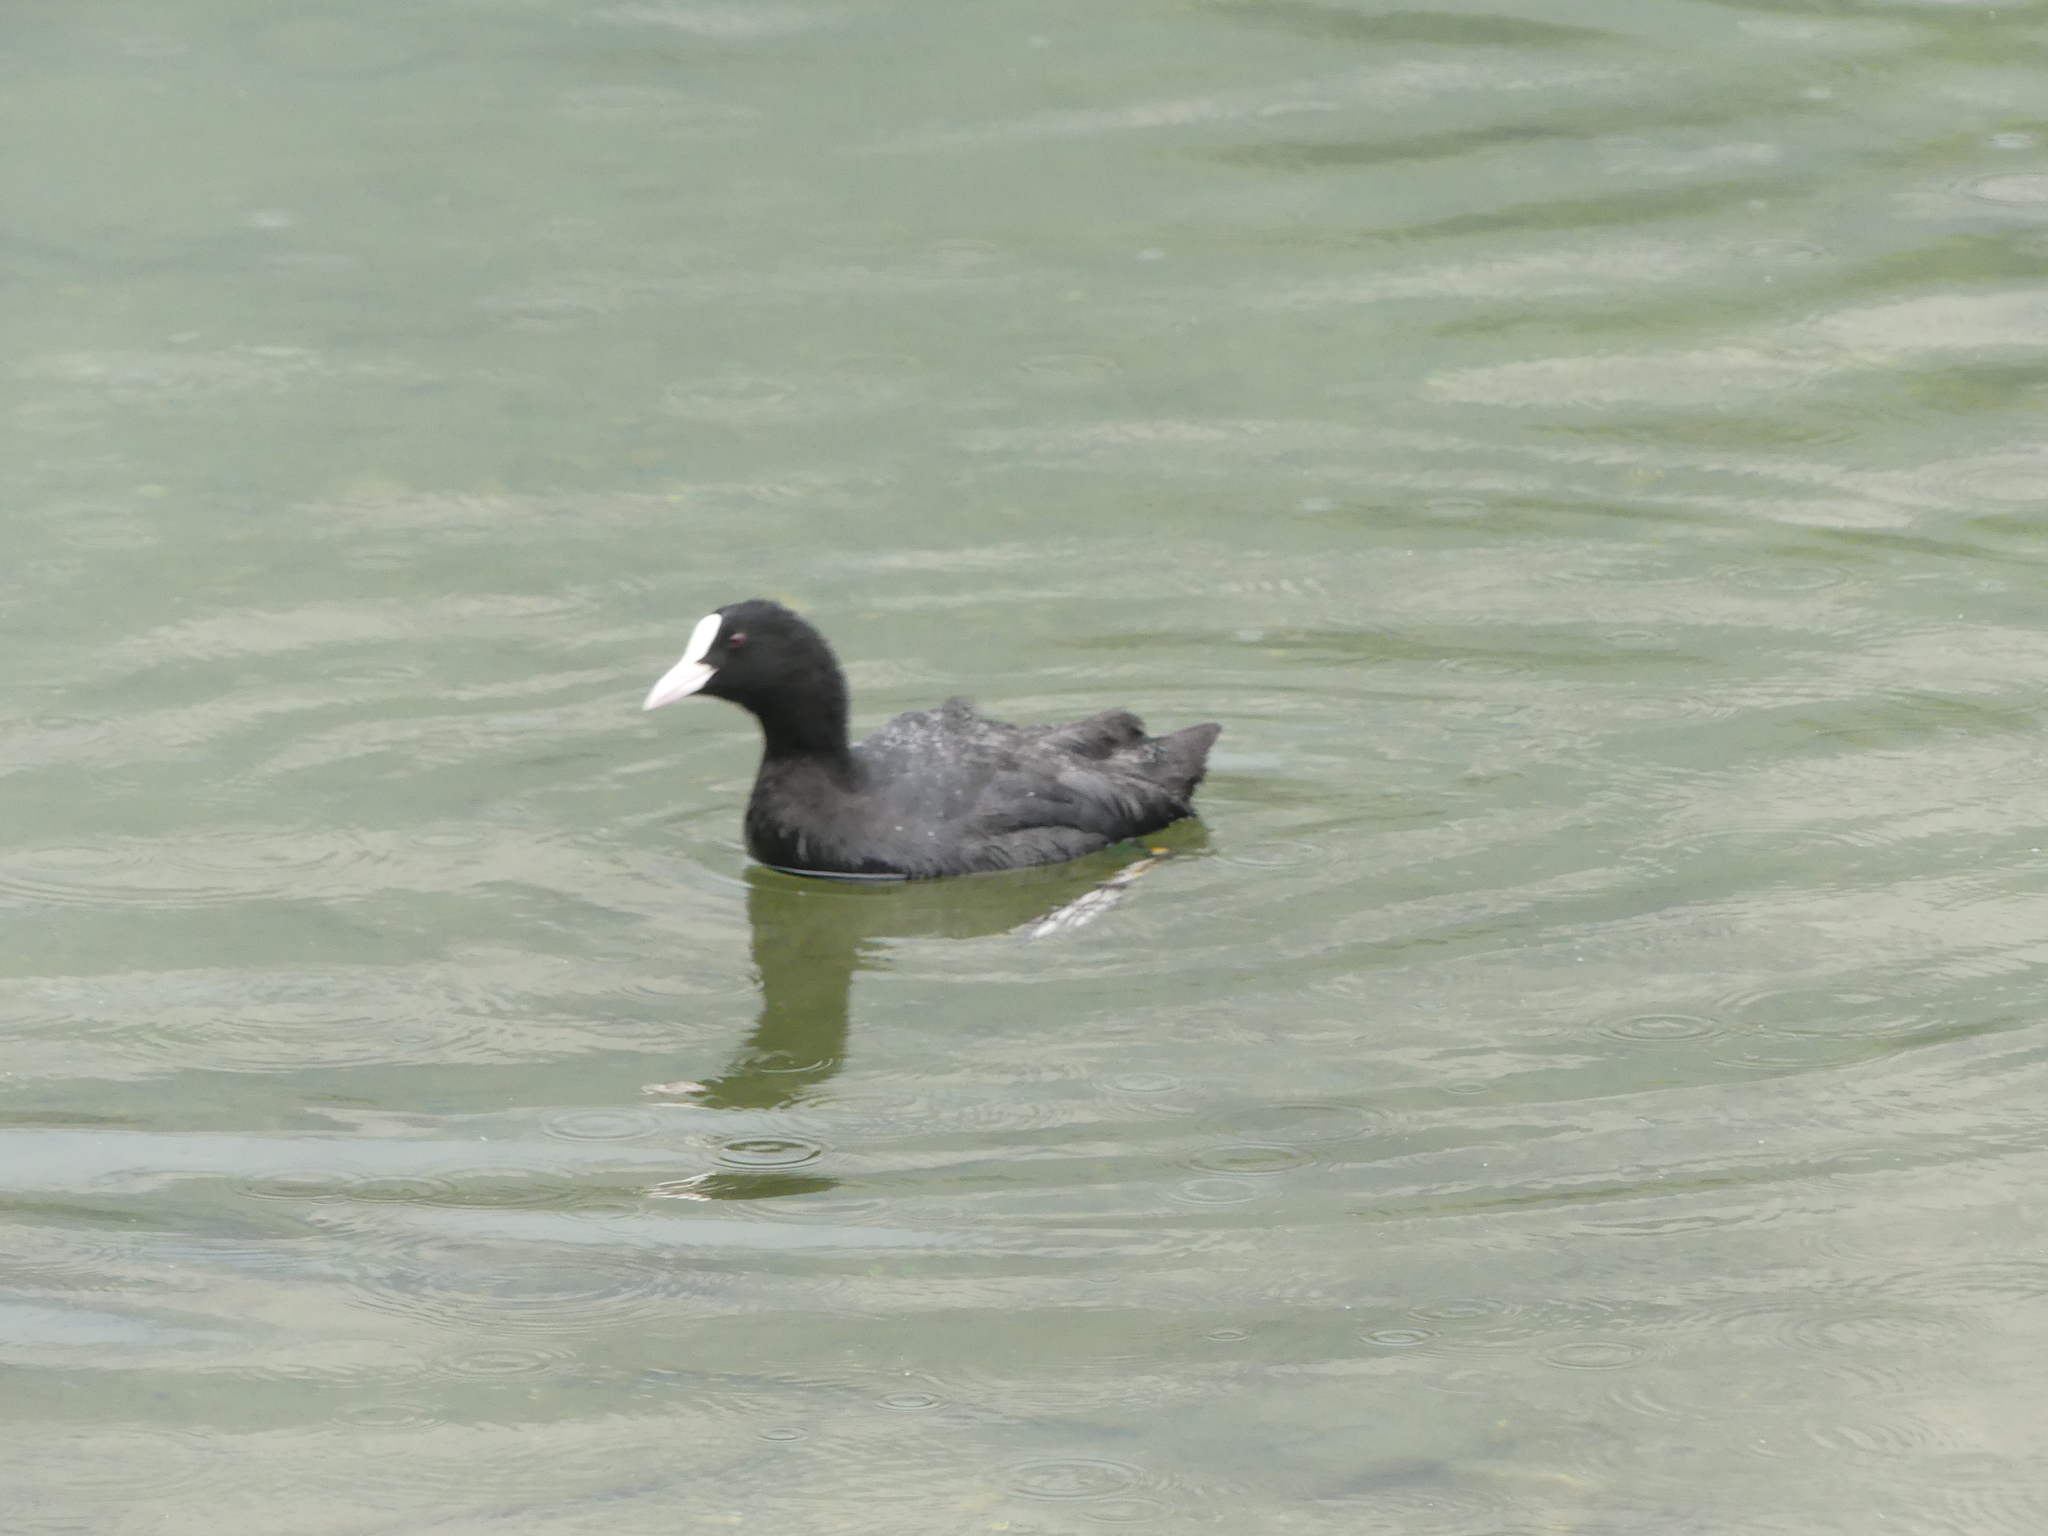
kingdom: Animalia
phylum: Chordata
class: Aves
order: Gruiformes
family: Rallidae
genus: Fulica
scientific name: Fulica atra
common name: Eurasian coot
